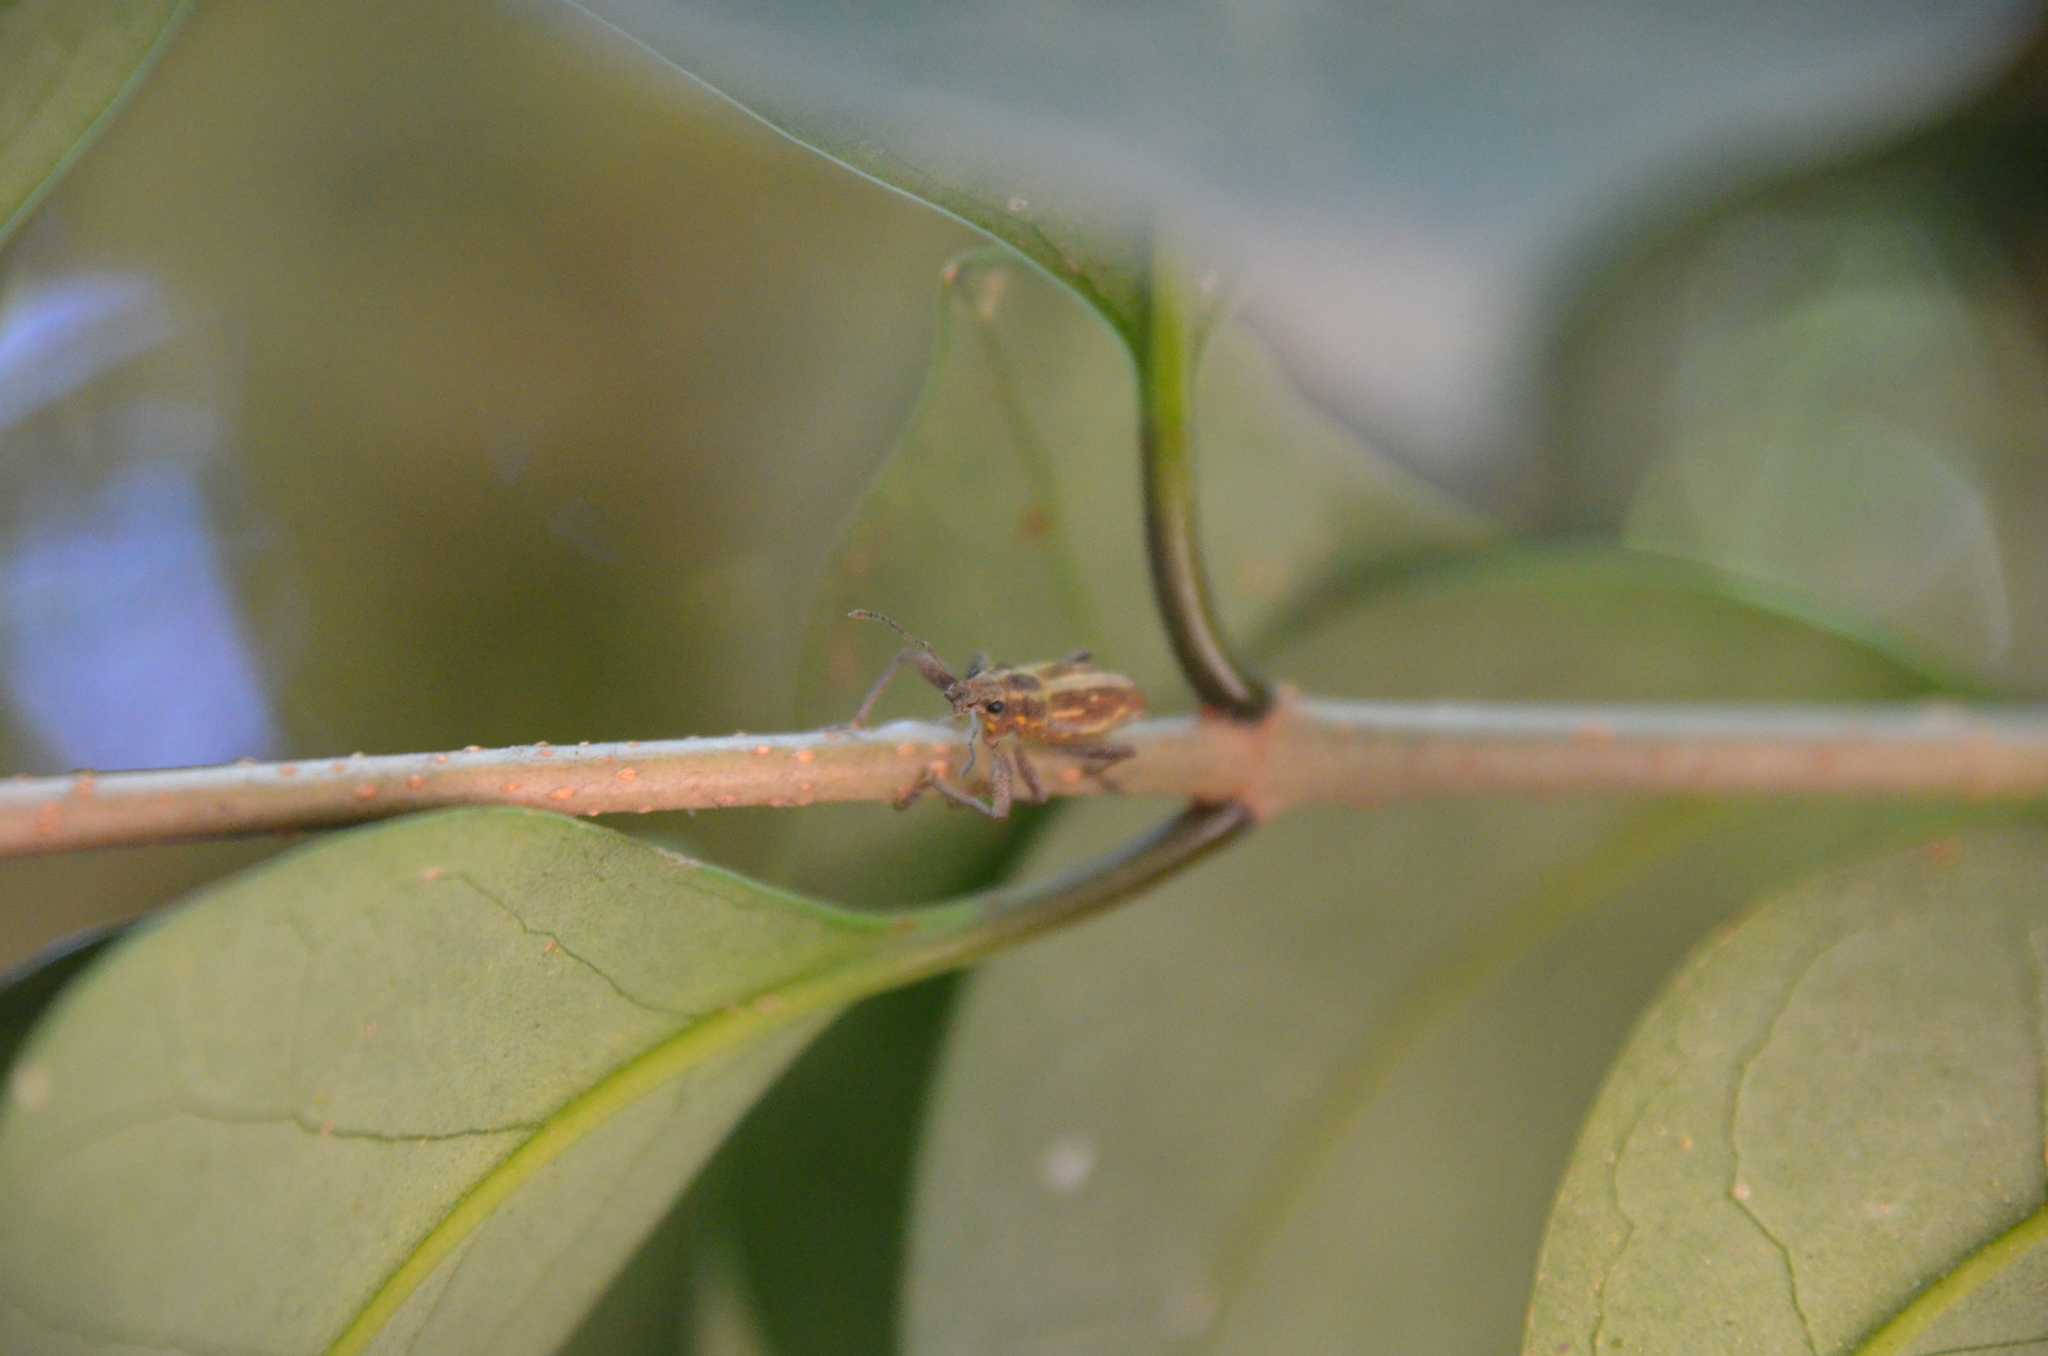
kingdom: Animalia
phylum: Arthropoda
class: Insecta
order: Coleoptera
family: Curculionidae
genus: Naupactus
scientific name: Naupactus xanthographus
